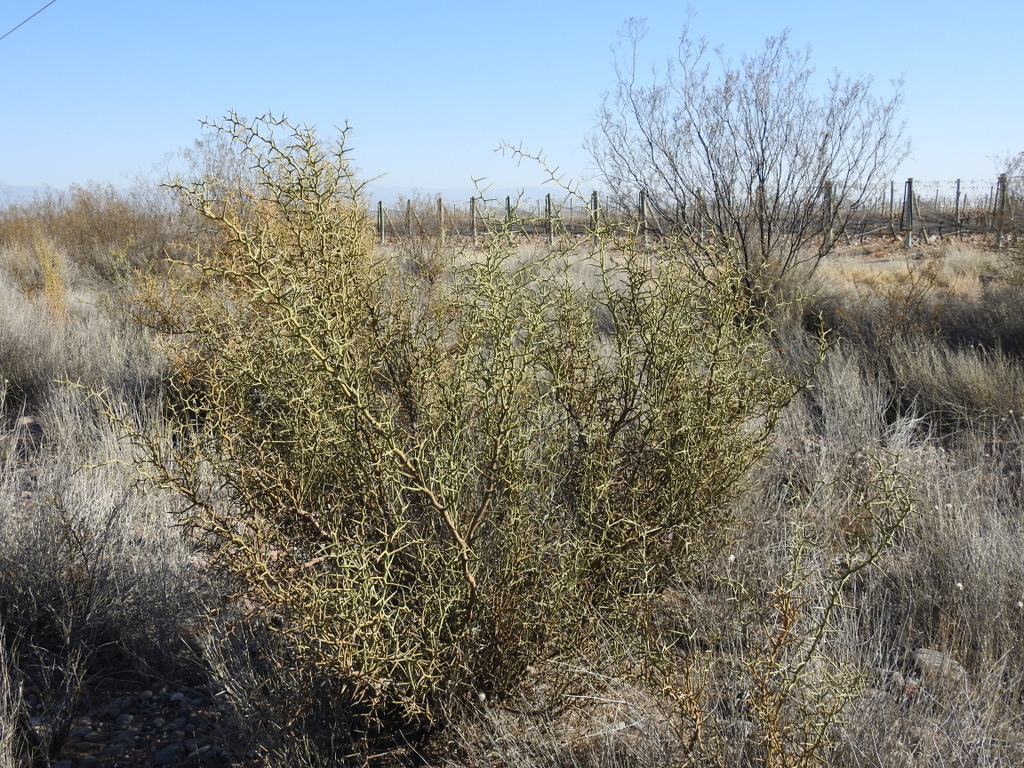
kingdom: Plantae
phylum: Tracheophyta
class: Magnoliopsida
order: Fabales
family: Polygalaceae
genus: Bredemeyera
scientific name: Bredemeyera colletioides
